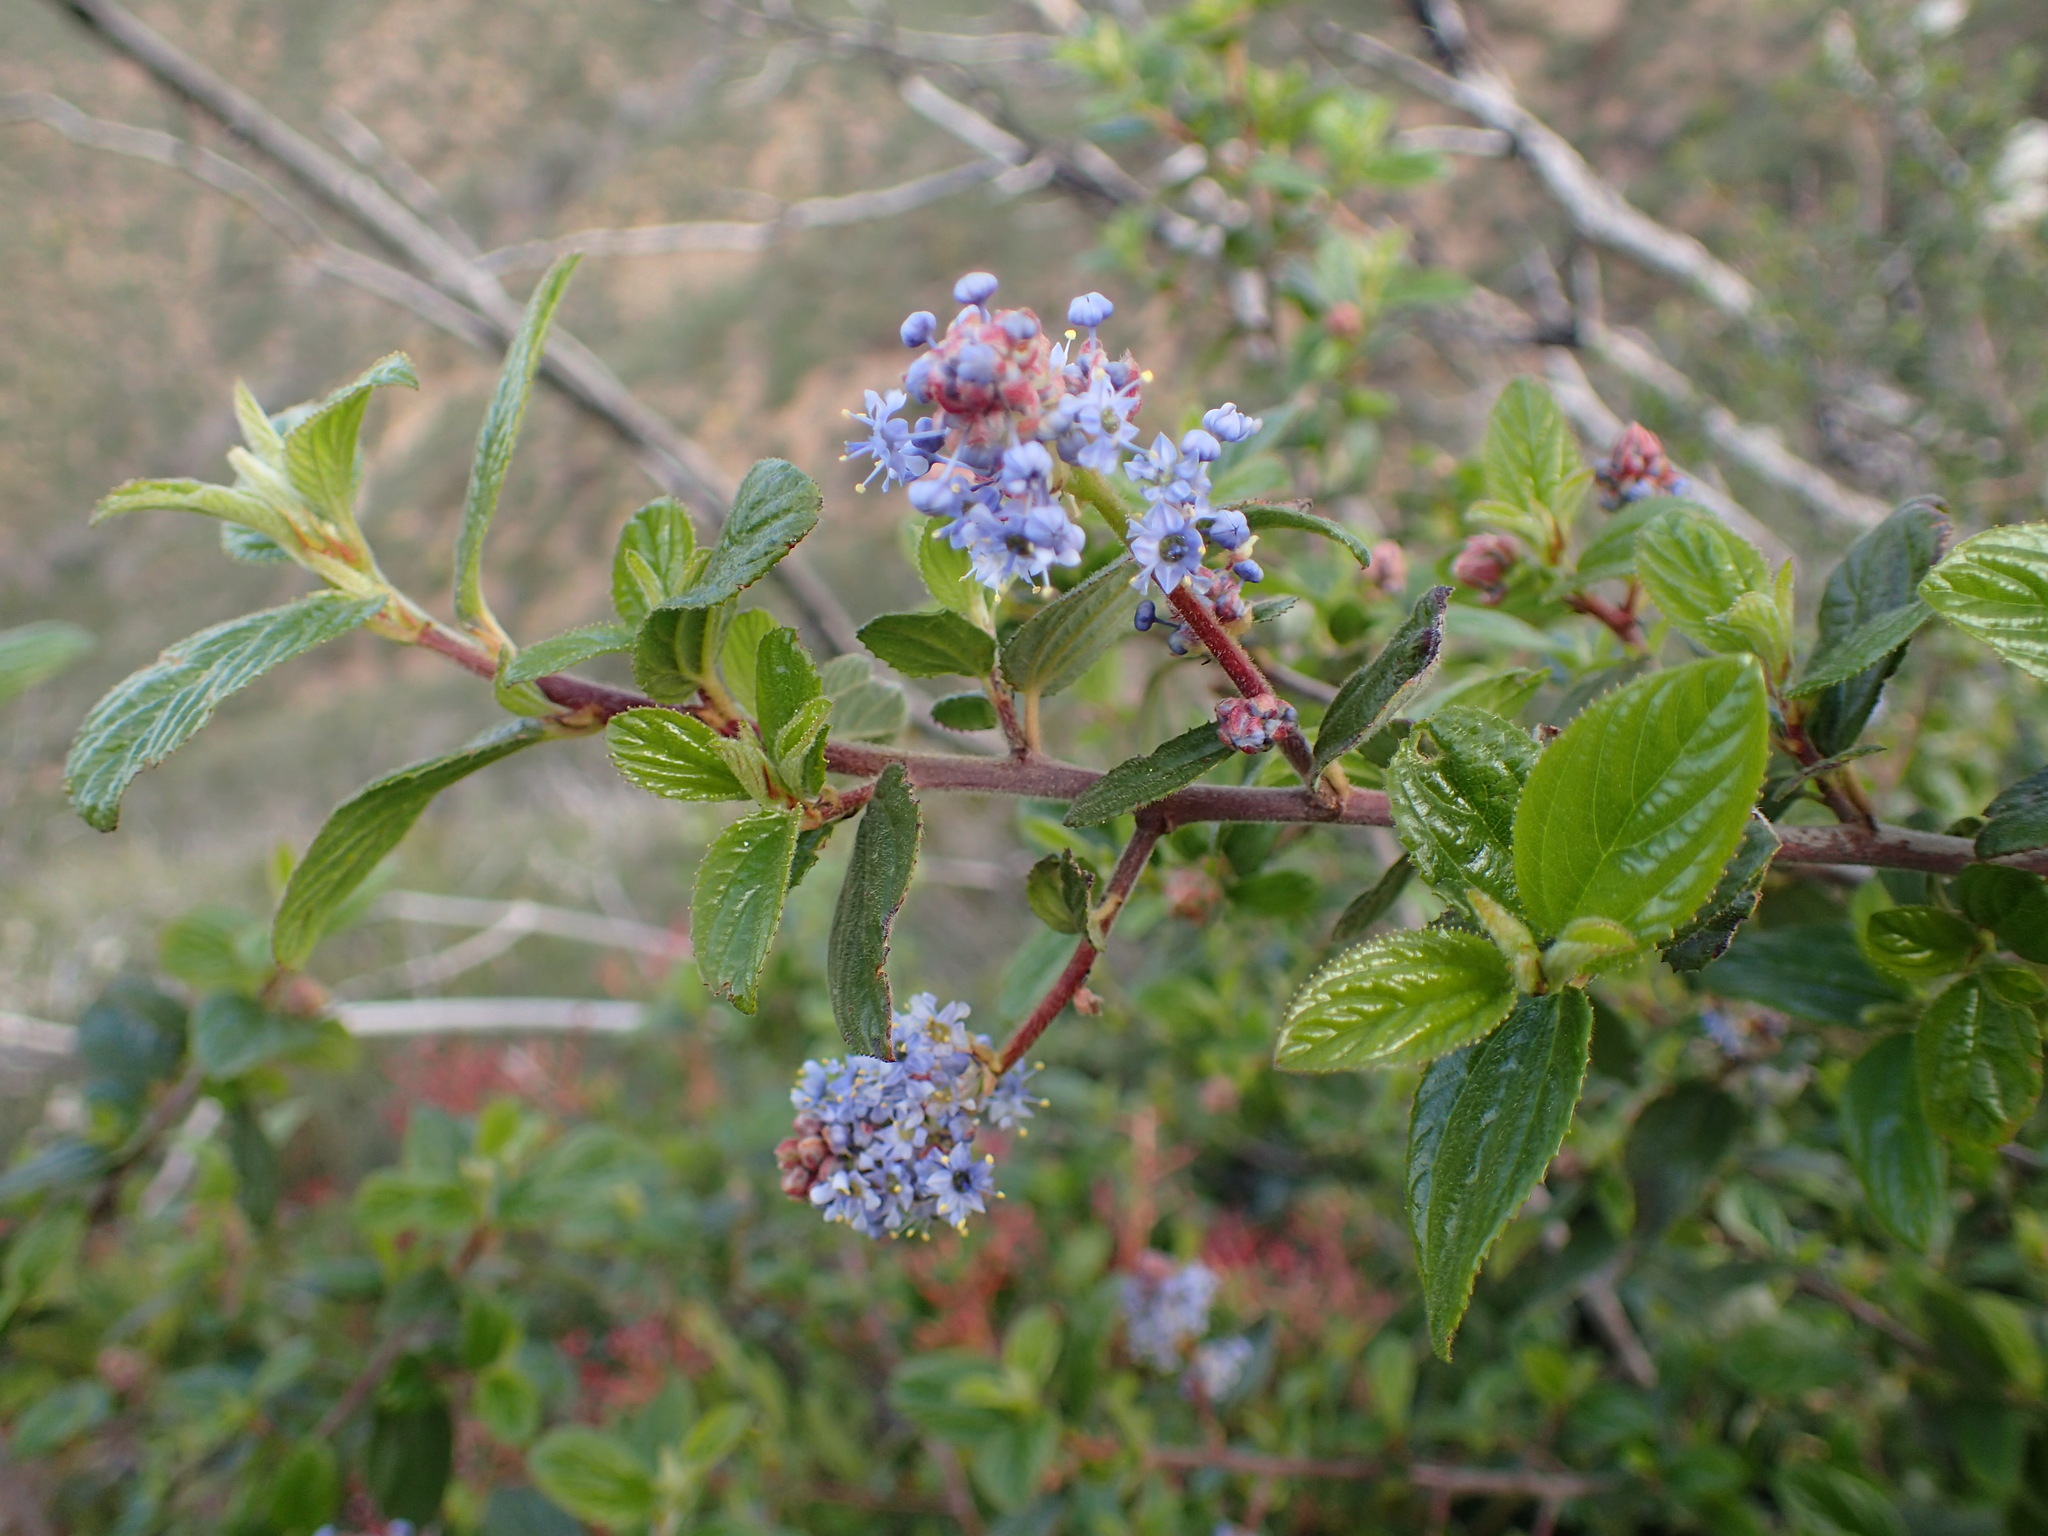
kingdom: Plantae
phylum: Tracheophyta
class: Magnoliopsida
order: Rosales
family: Rhamnaceae
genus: Ceanothus
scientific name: Ceanothus oliganthus
